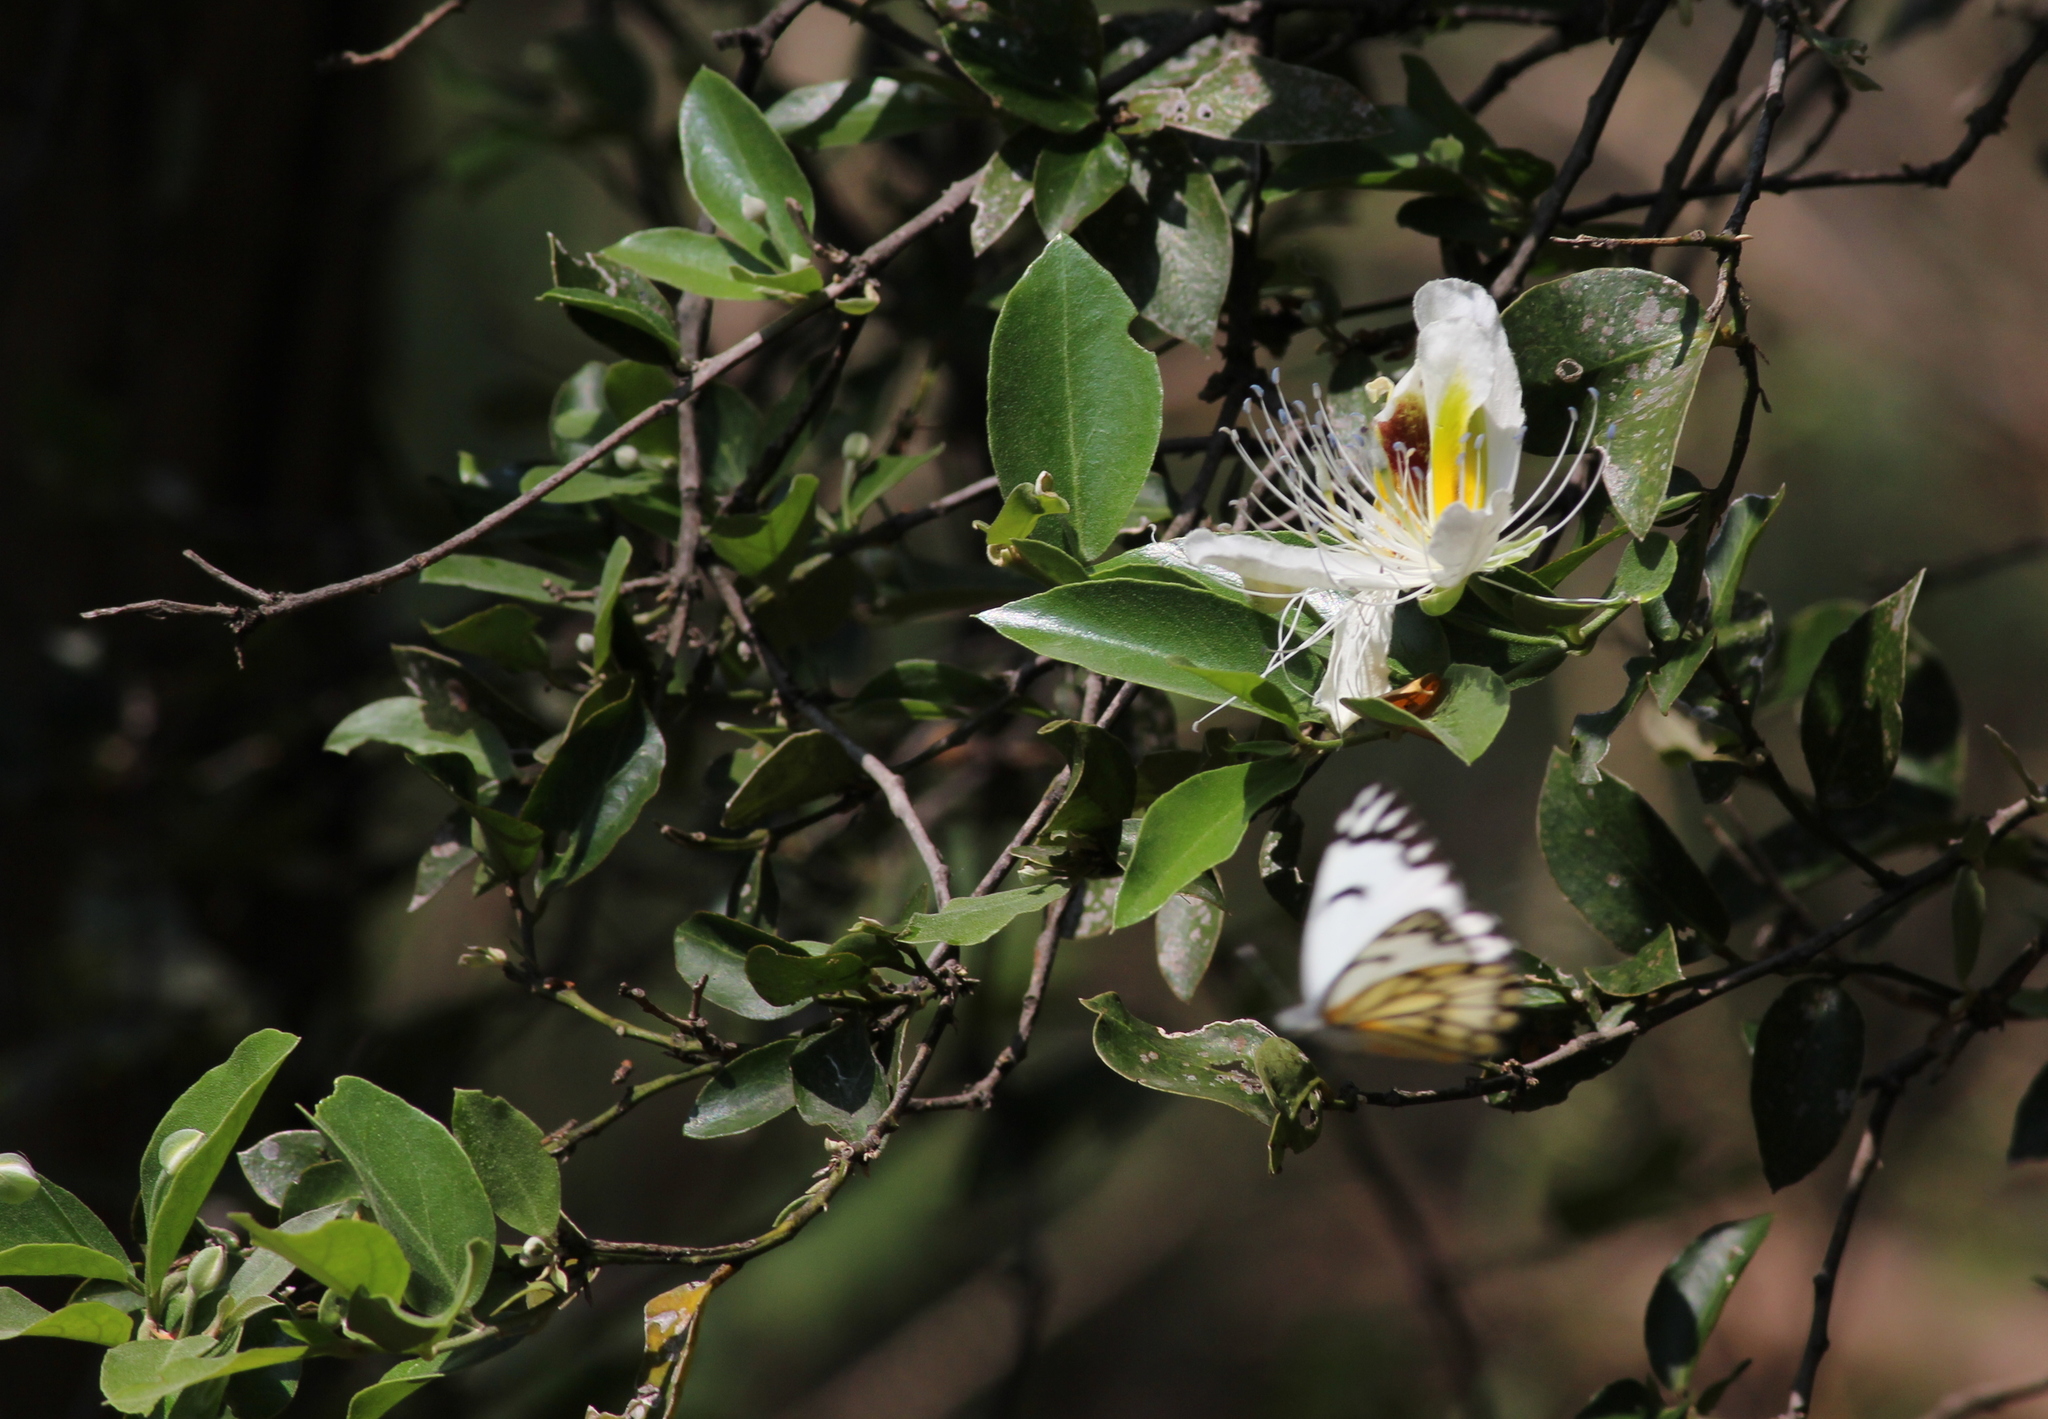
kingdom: Animalia
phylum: Arthropoda
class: Insecta
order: Lepidoptera
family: Pieridae
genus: Belenois
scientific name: Belenois aurota
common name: Brown-veined white
